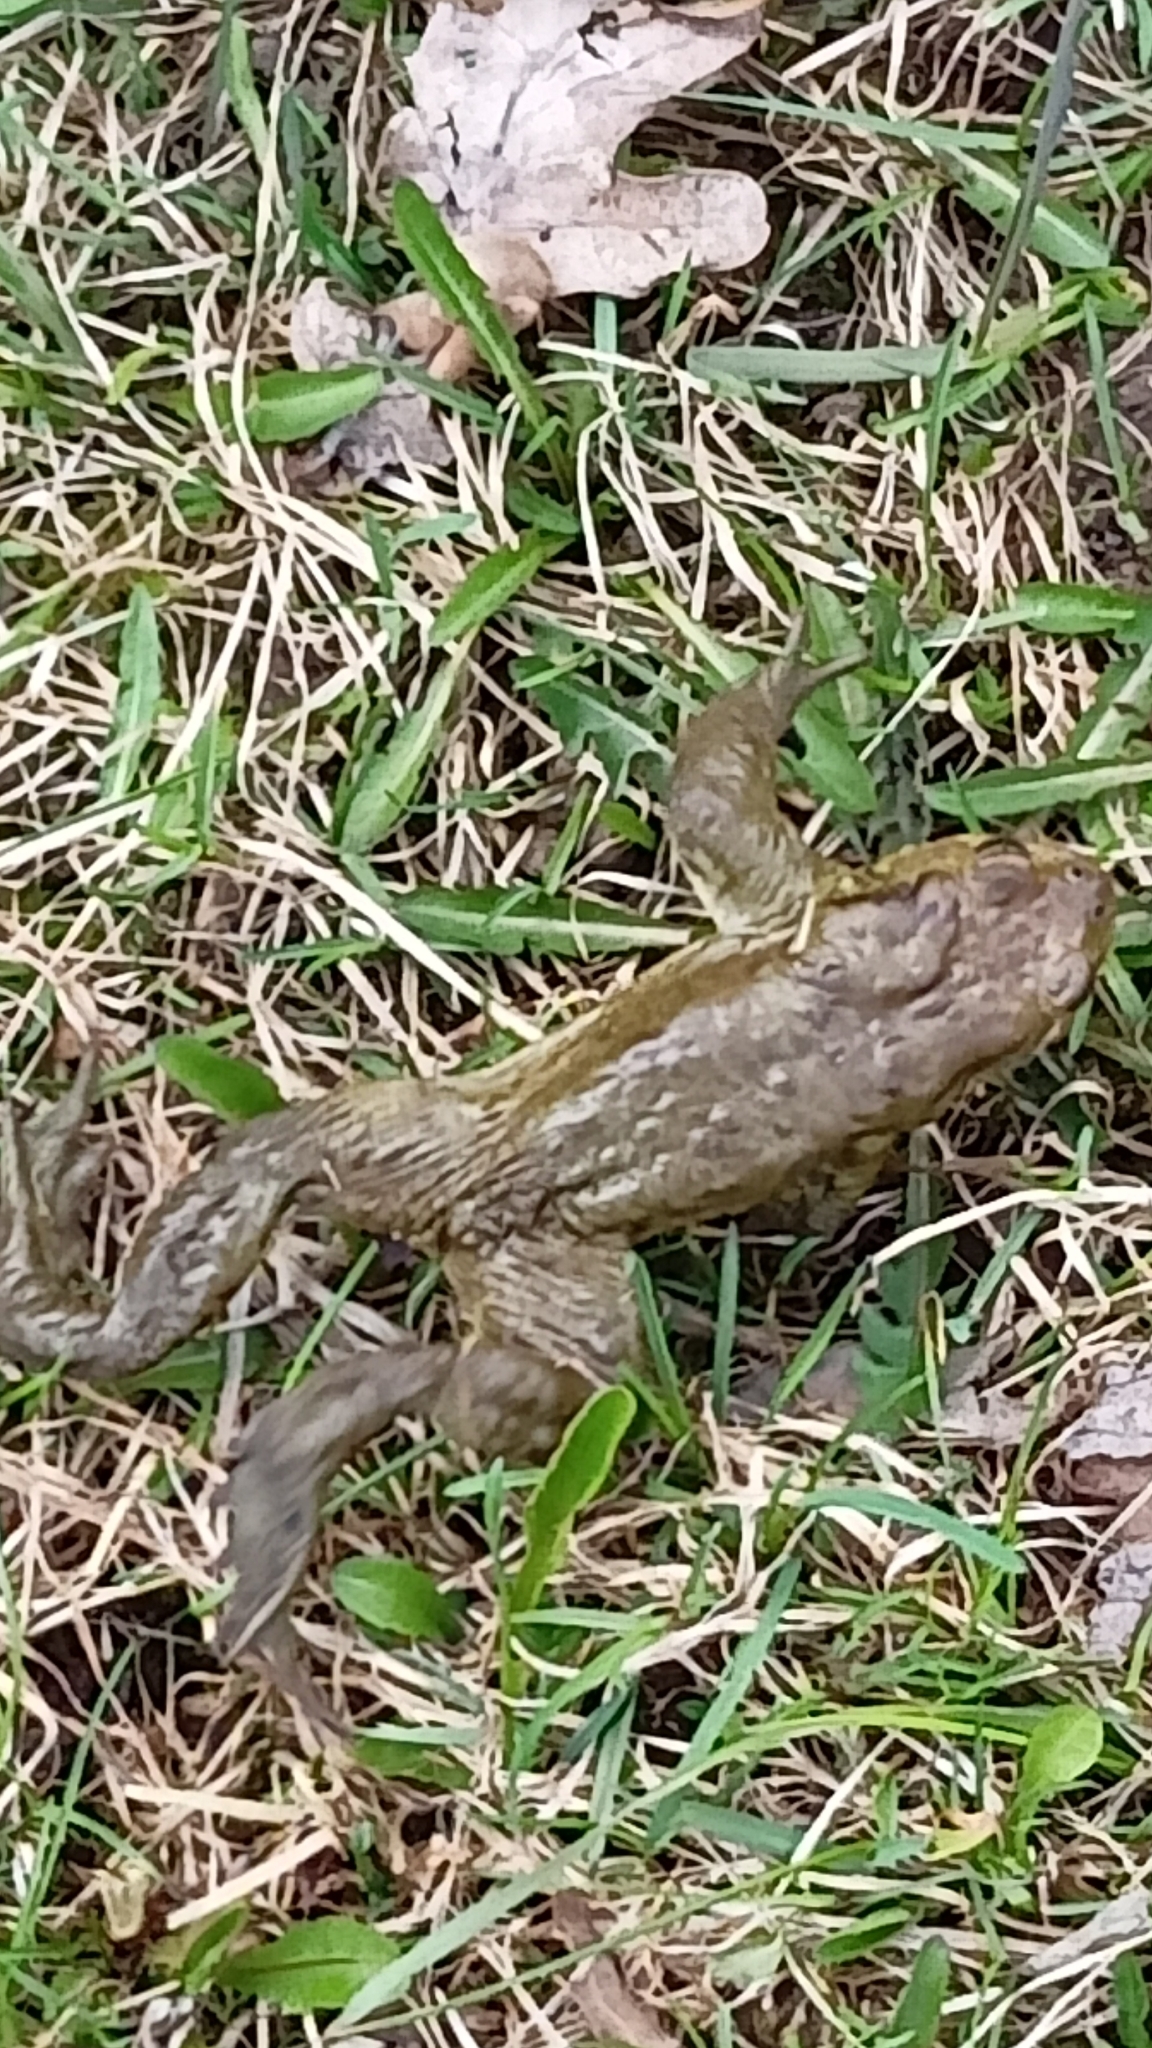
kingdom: Animalia
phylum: Chordata
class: Amphibia
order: Anura
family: Bufonidae
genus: Bufo
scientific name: Bufo bufo
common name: Common toad
